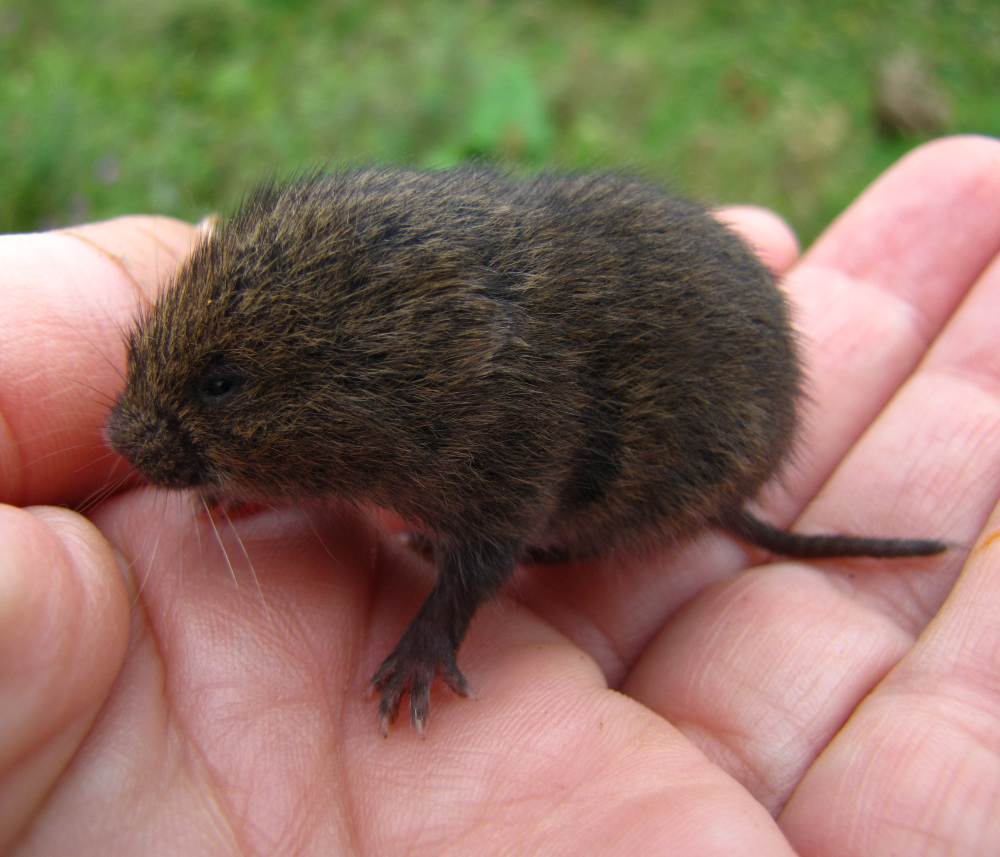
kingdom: Animalia
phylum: Chordata
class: Mammalia
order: Rodentia
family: Cricetidae
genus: Microtus
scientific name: Microtus pennsylvanicus
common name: Meadow vole
